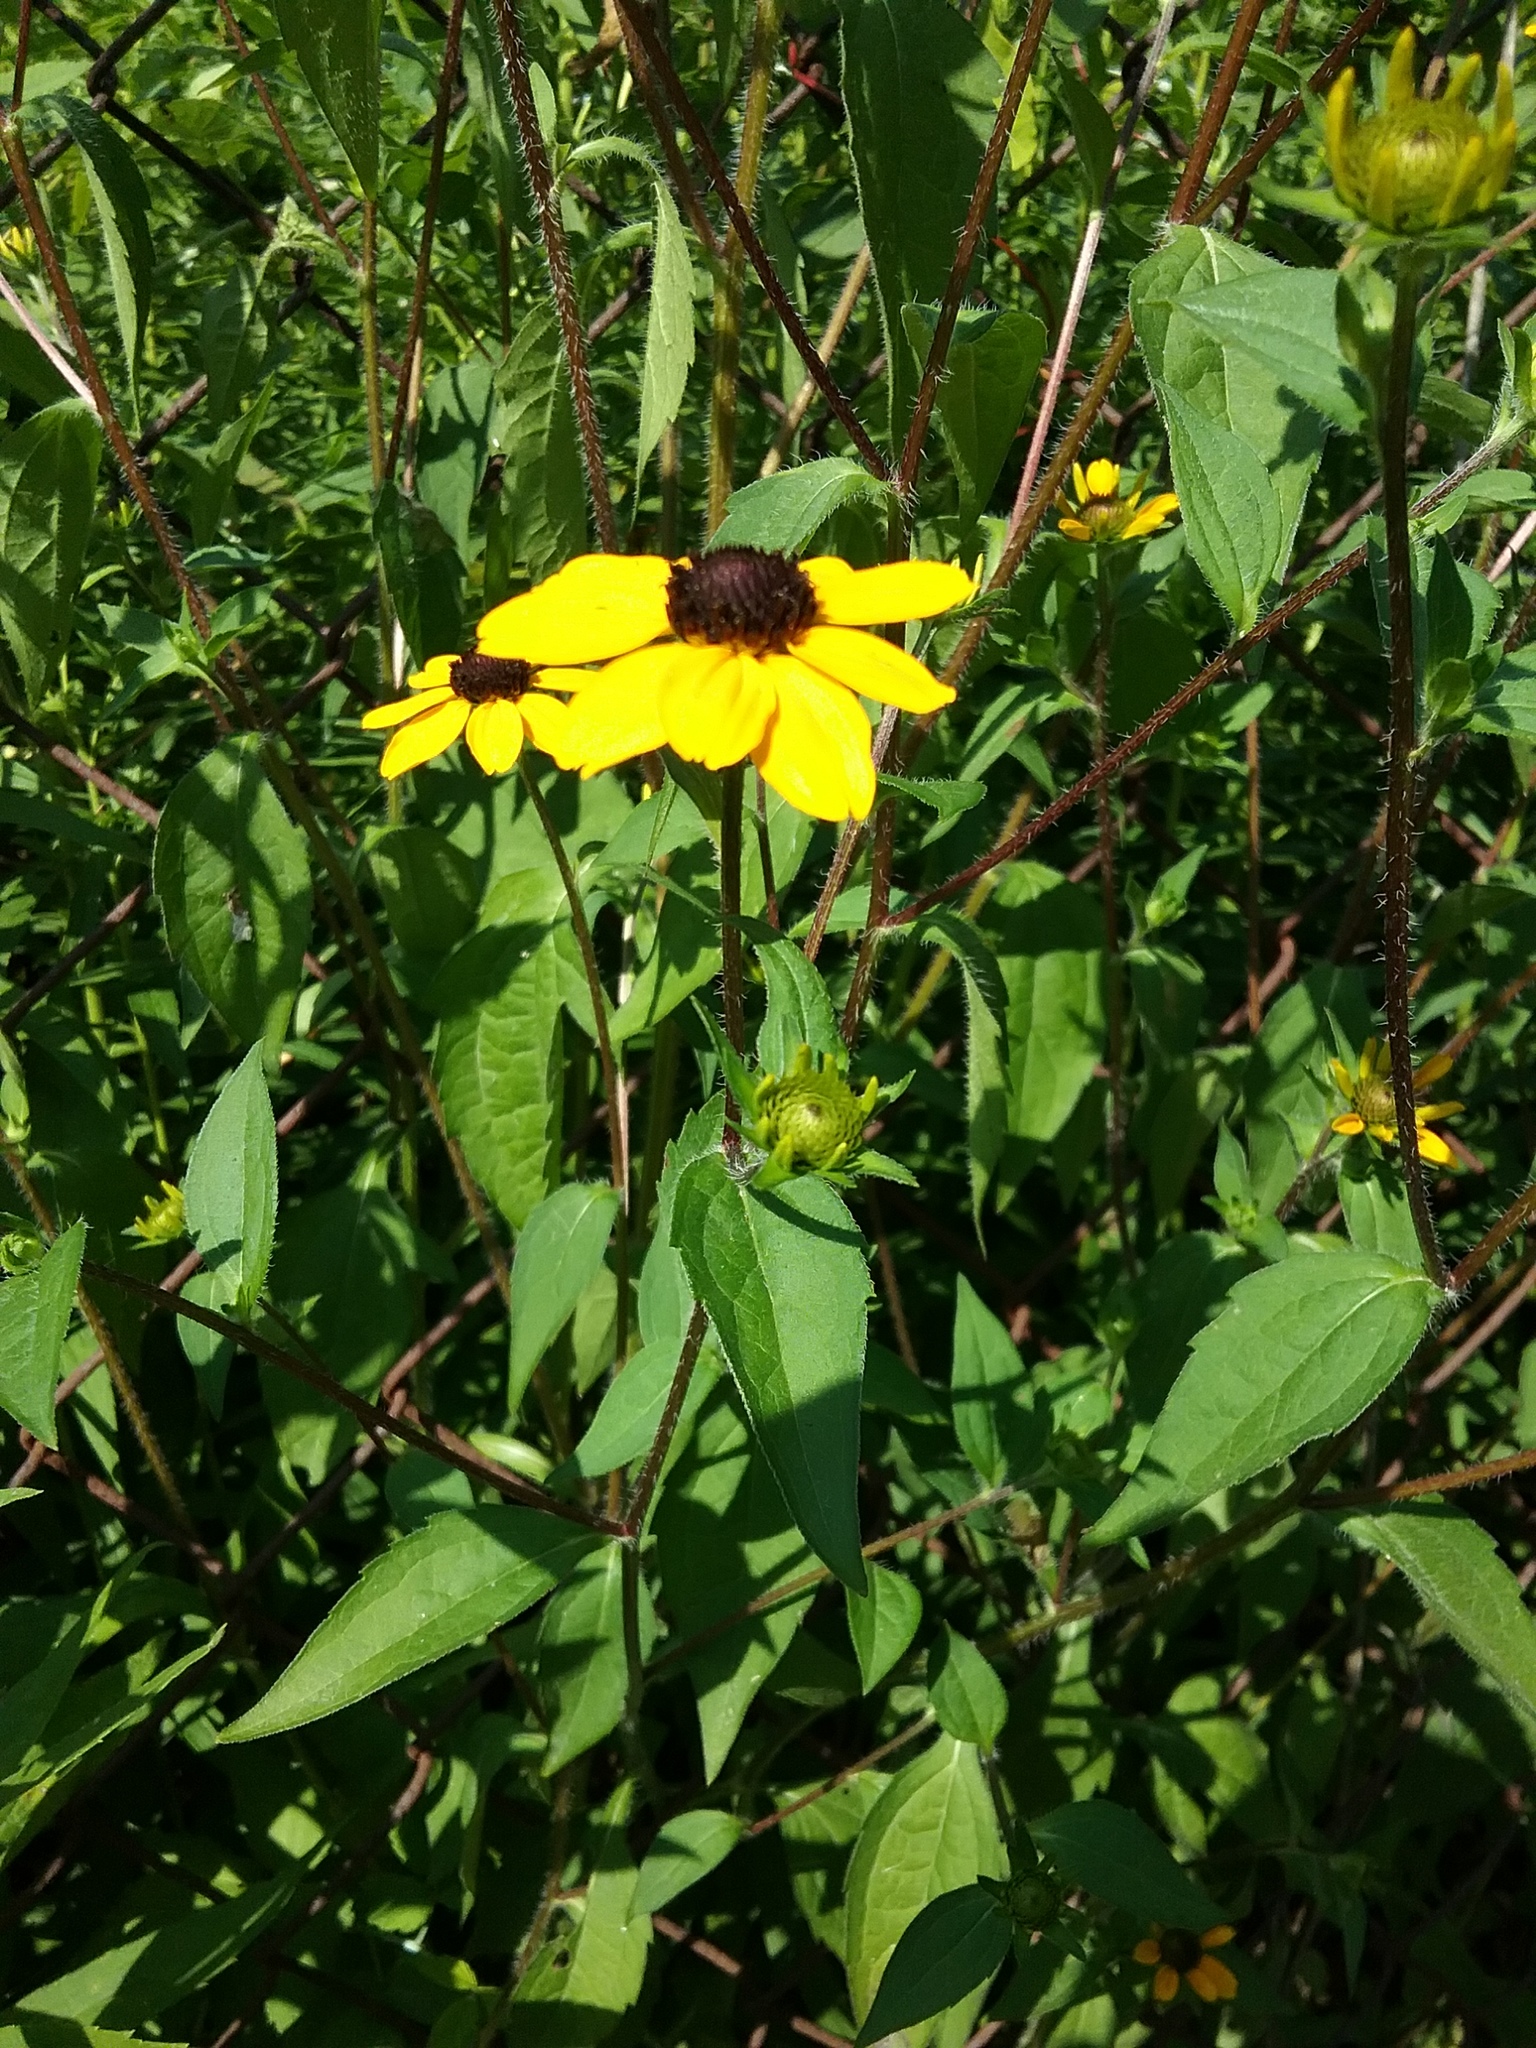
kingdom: Plantae
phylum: Tracheophyta
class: Magnoliopsida
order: Asterales
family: Asteraceae
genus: Rudbeckia
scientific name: Rudbeckia triloba
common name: Thin-leaved coneflower
